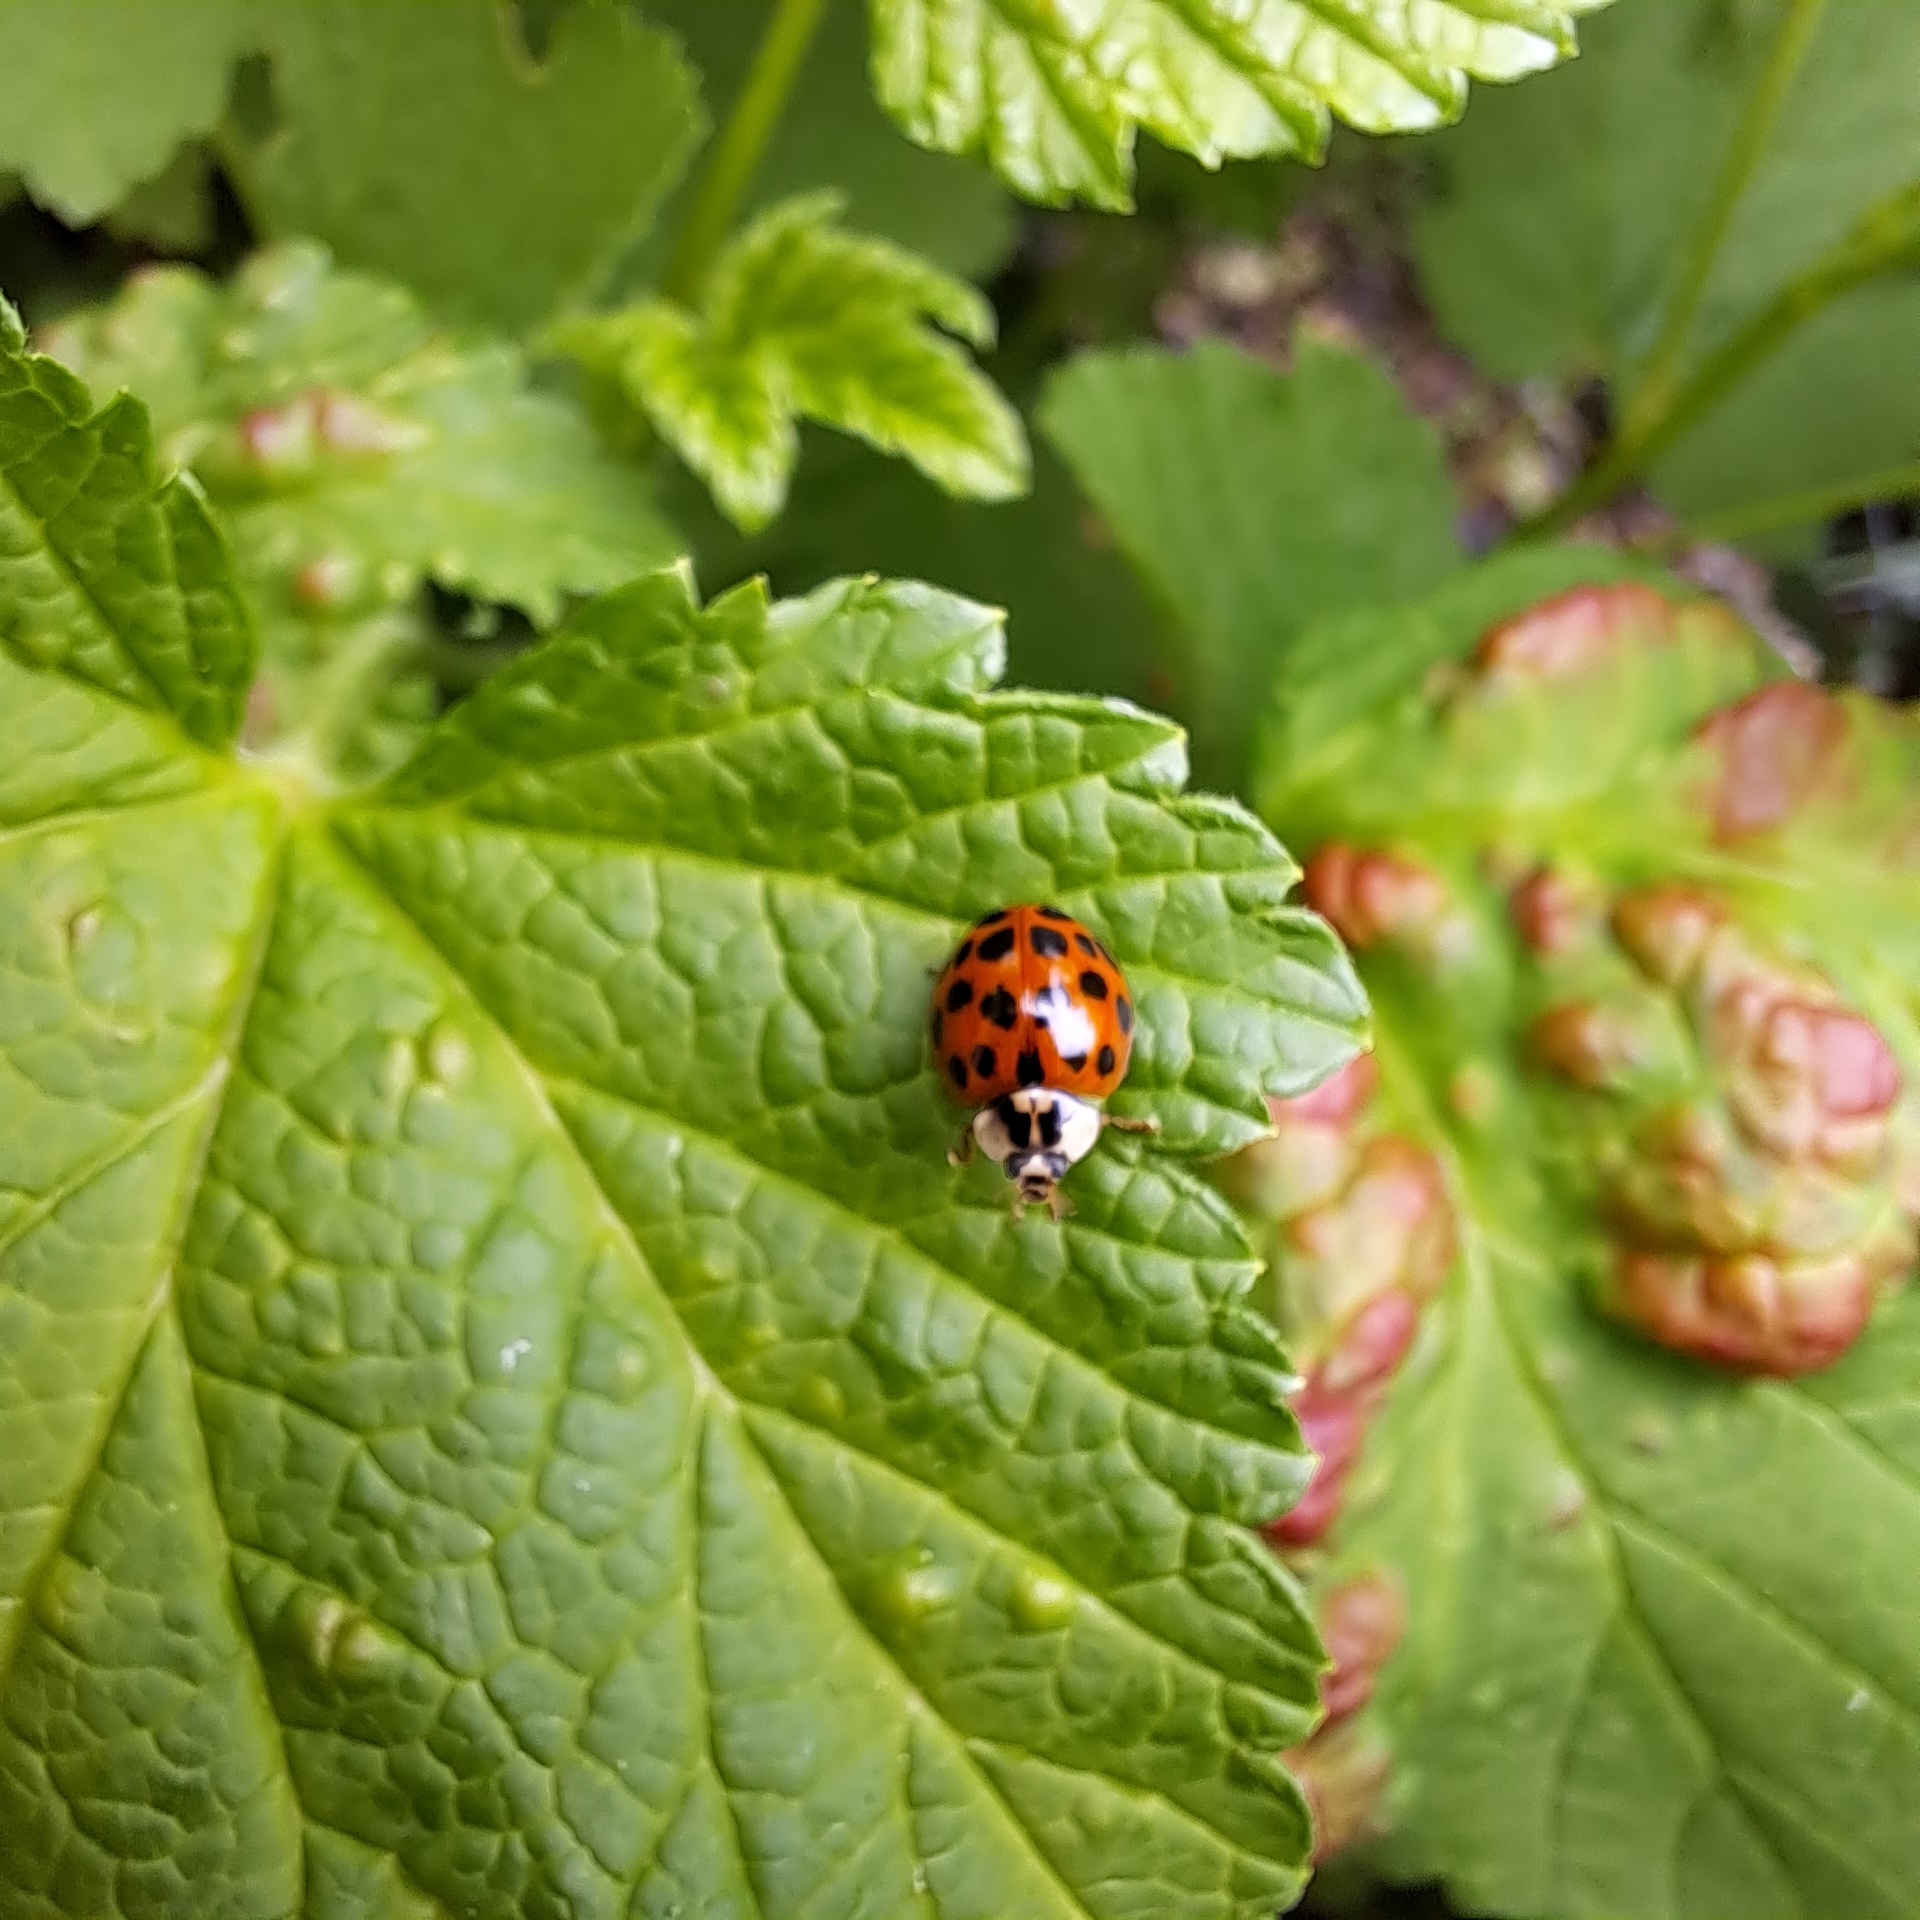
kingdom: Animalia
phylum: Arthropoda
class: Insecta
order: Coleoptera
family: Coccinellidae
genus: Harmonia
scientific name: Harmonia axyridis
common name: Harlequin ladybird
